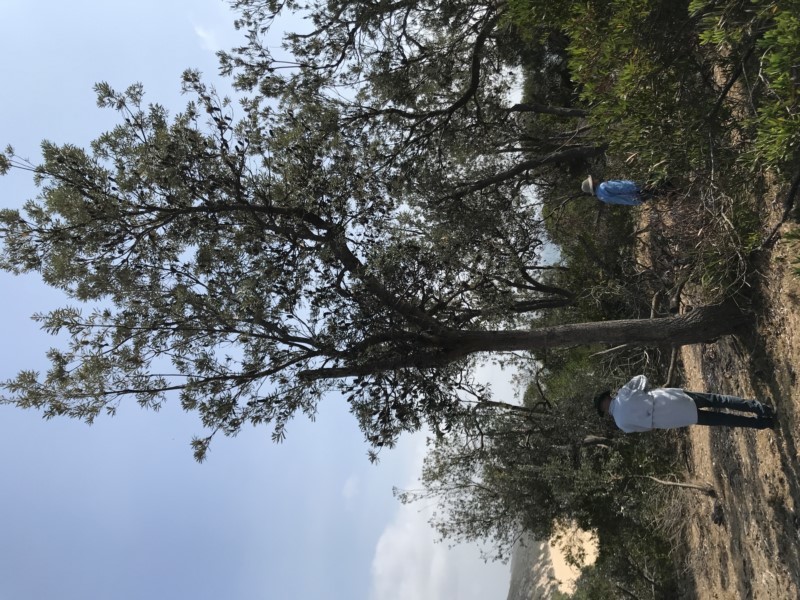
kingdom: Plantae
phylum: Tracheophyta
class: Magnoliopsida
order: Proteales
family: Proteaceae
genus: Banksia
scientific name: Banksia integrifolia
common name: White-honeysuckle
